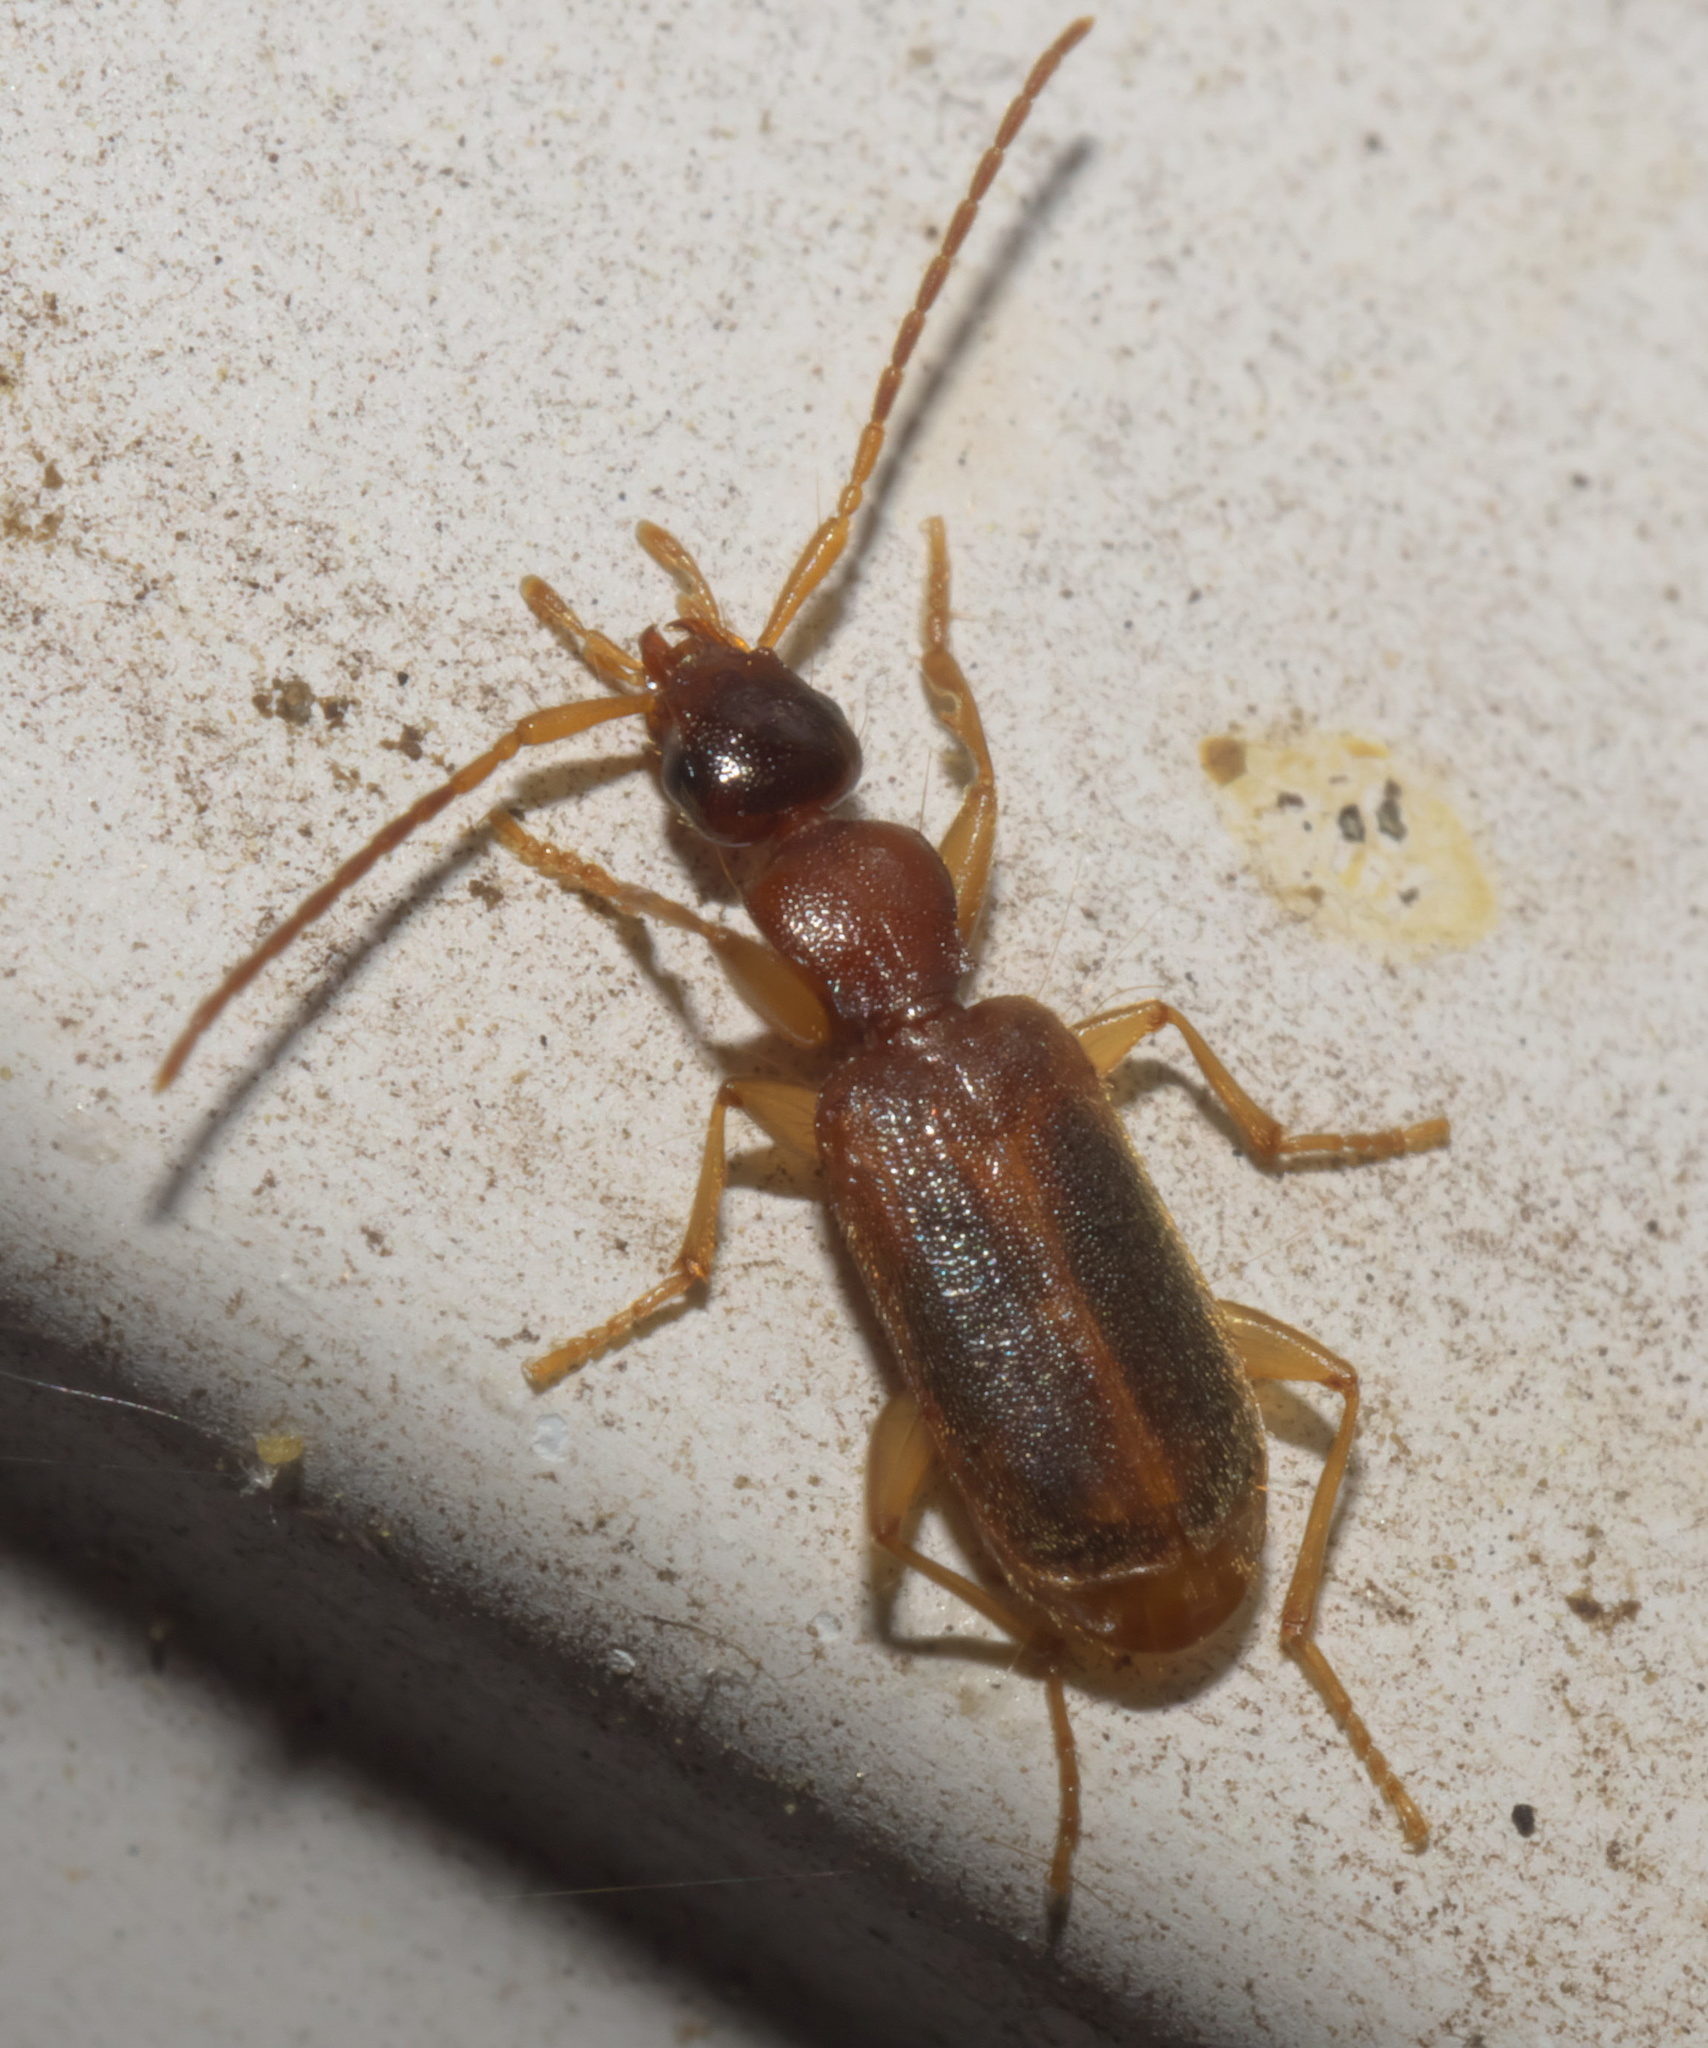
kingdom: Animalia
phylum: Arthropoda
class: Insecta
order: Coleoptera
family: Carabidae
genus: Zuphioides
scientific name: Zuphioides americanum
